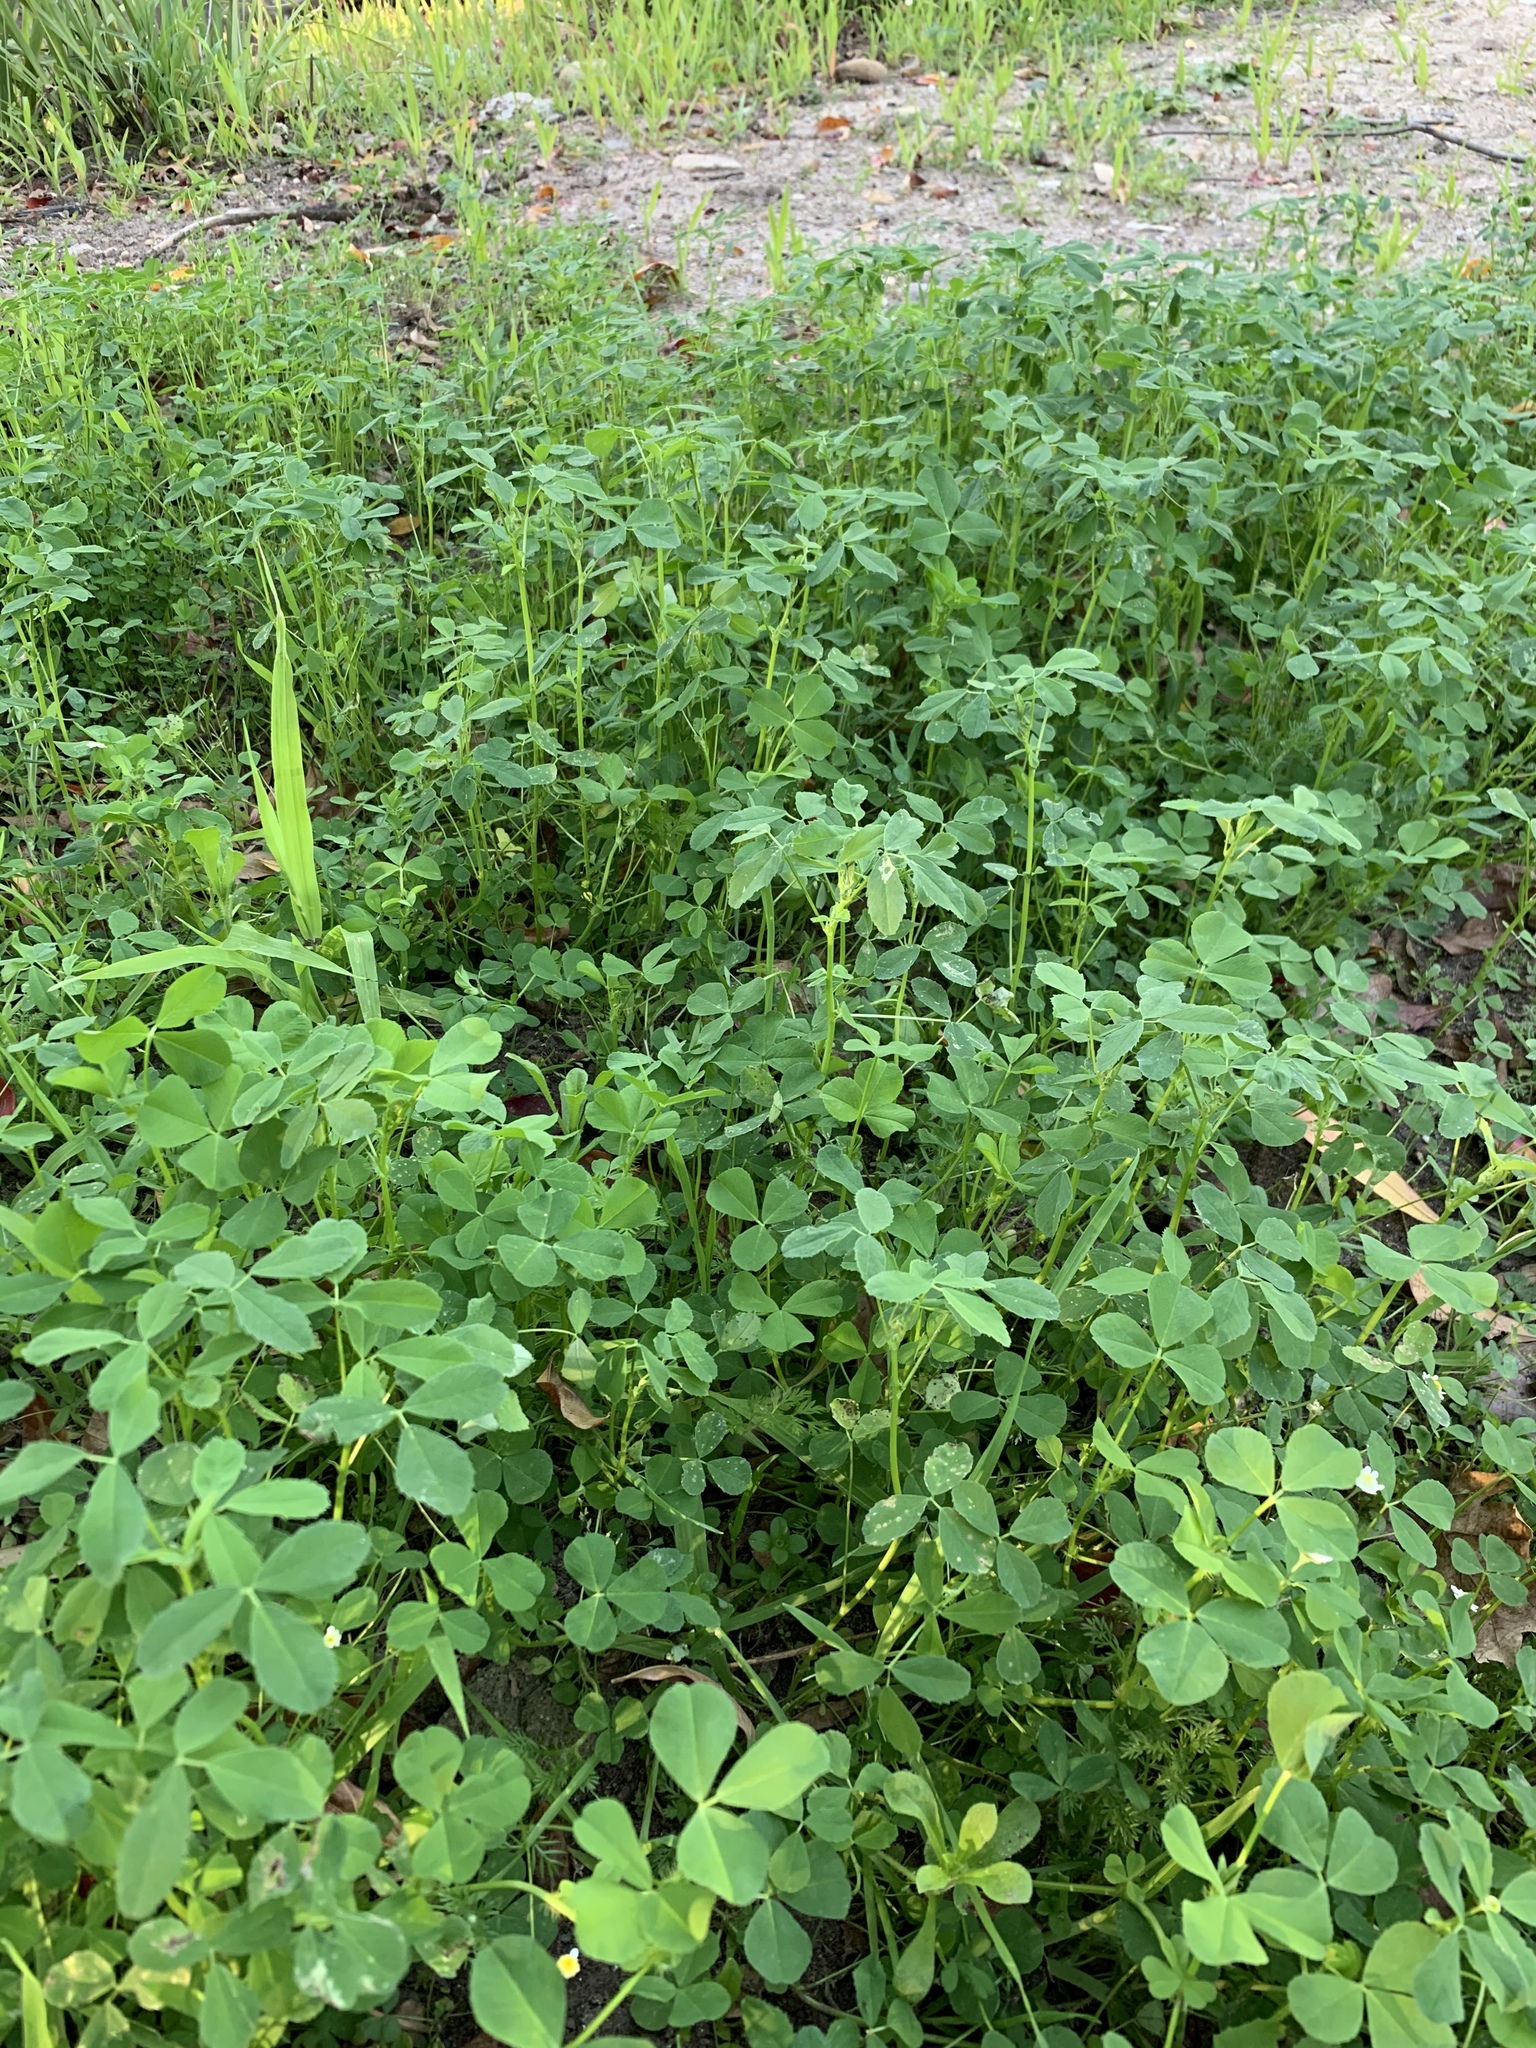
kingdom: Plantae
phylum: Tracheophyta
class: Magnoliopsida
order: Fabales
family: Fabaceae
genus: Medicago
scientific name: Medicago polymorpha
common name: Burclover
